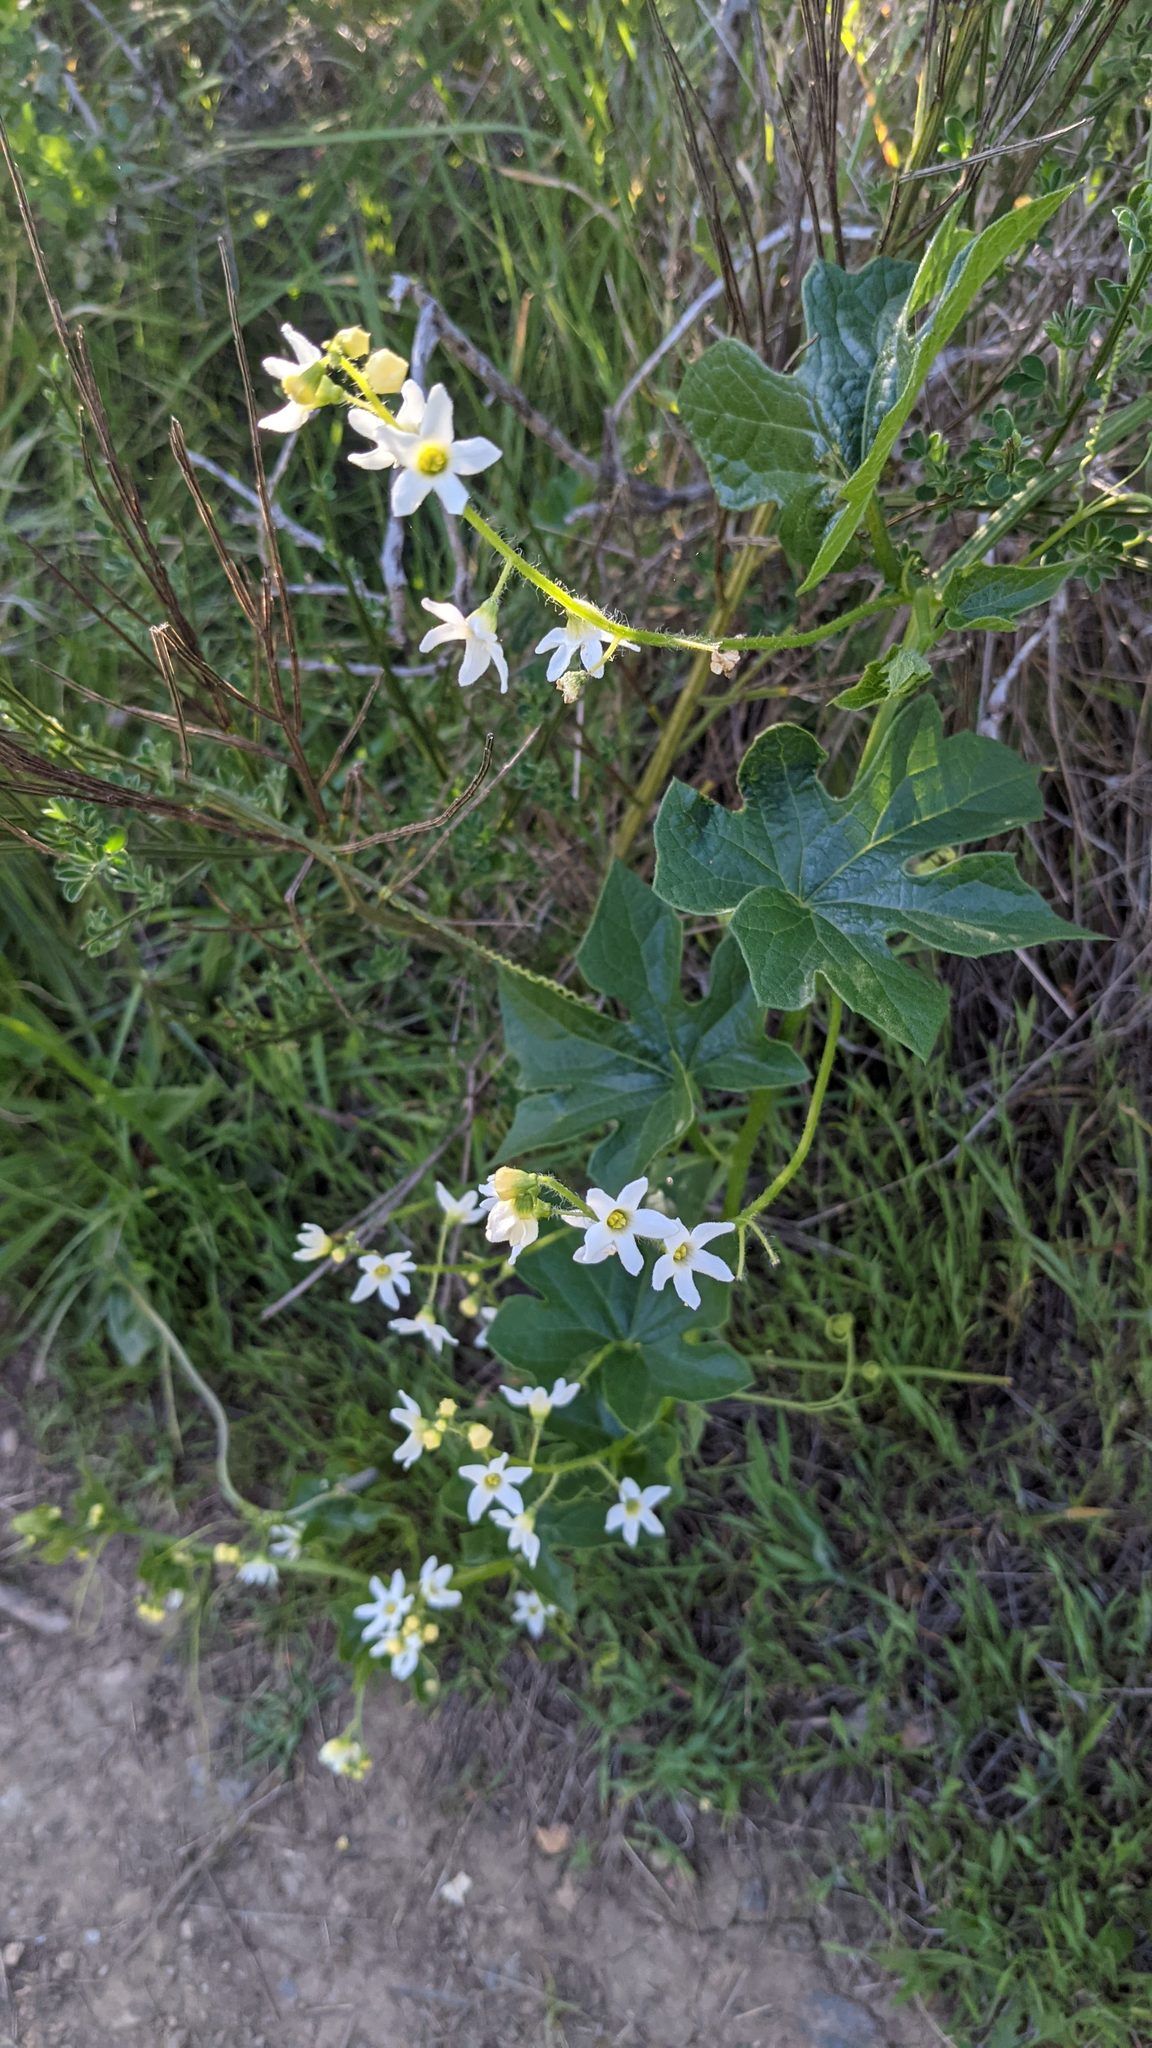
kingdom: Plantae
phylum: Tracheophyta
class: Magnoliopsida
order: Cucurbitales
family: Cucurbitaceae
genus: Marah
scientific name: Marah oregana
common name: Coastal manroot
